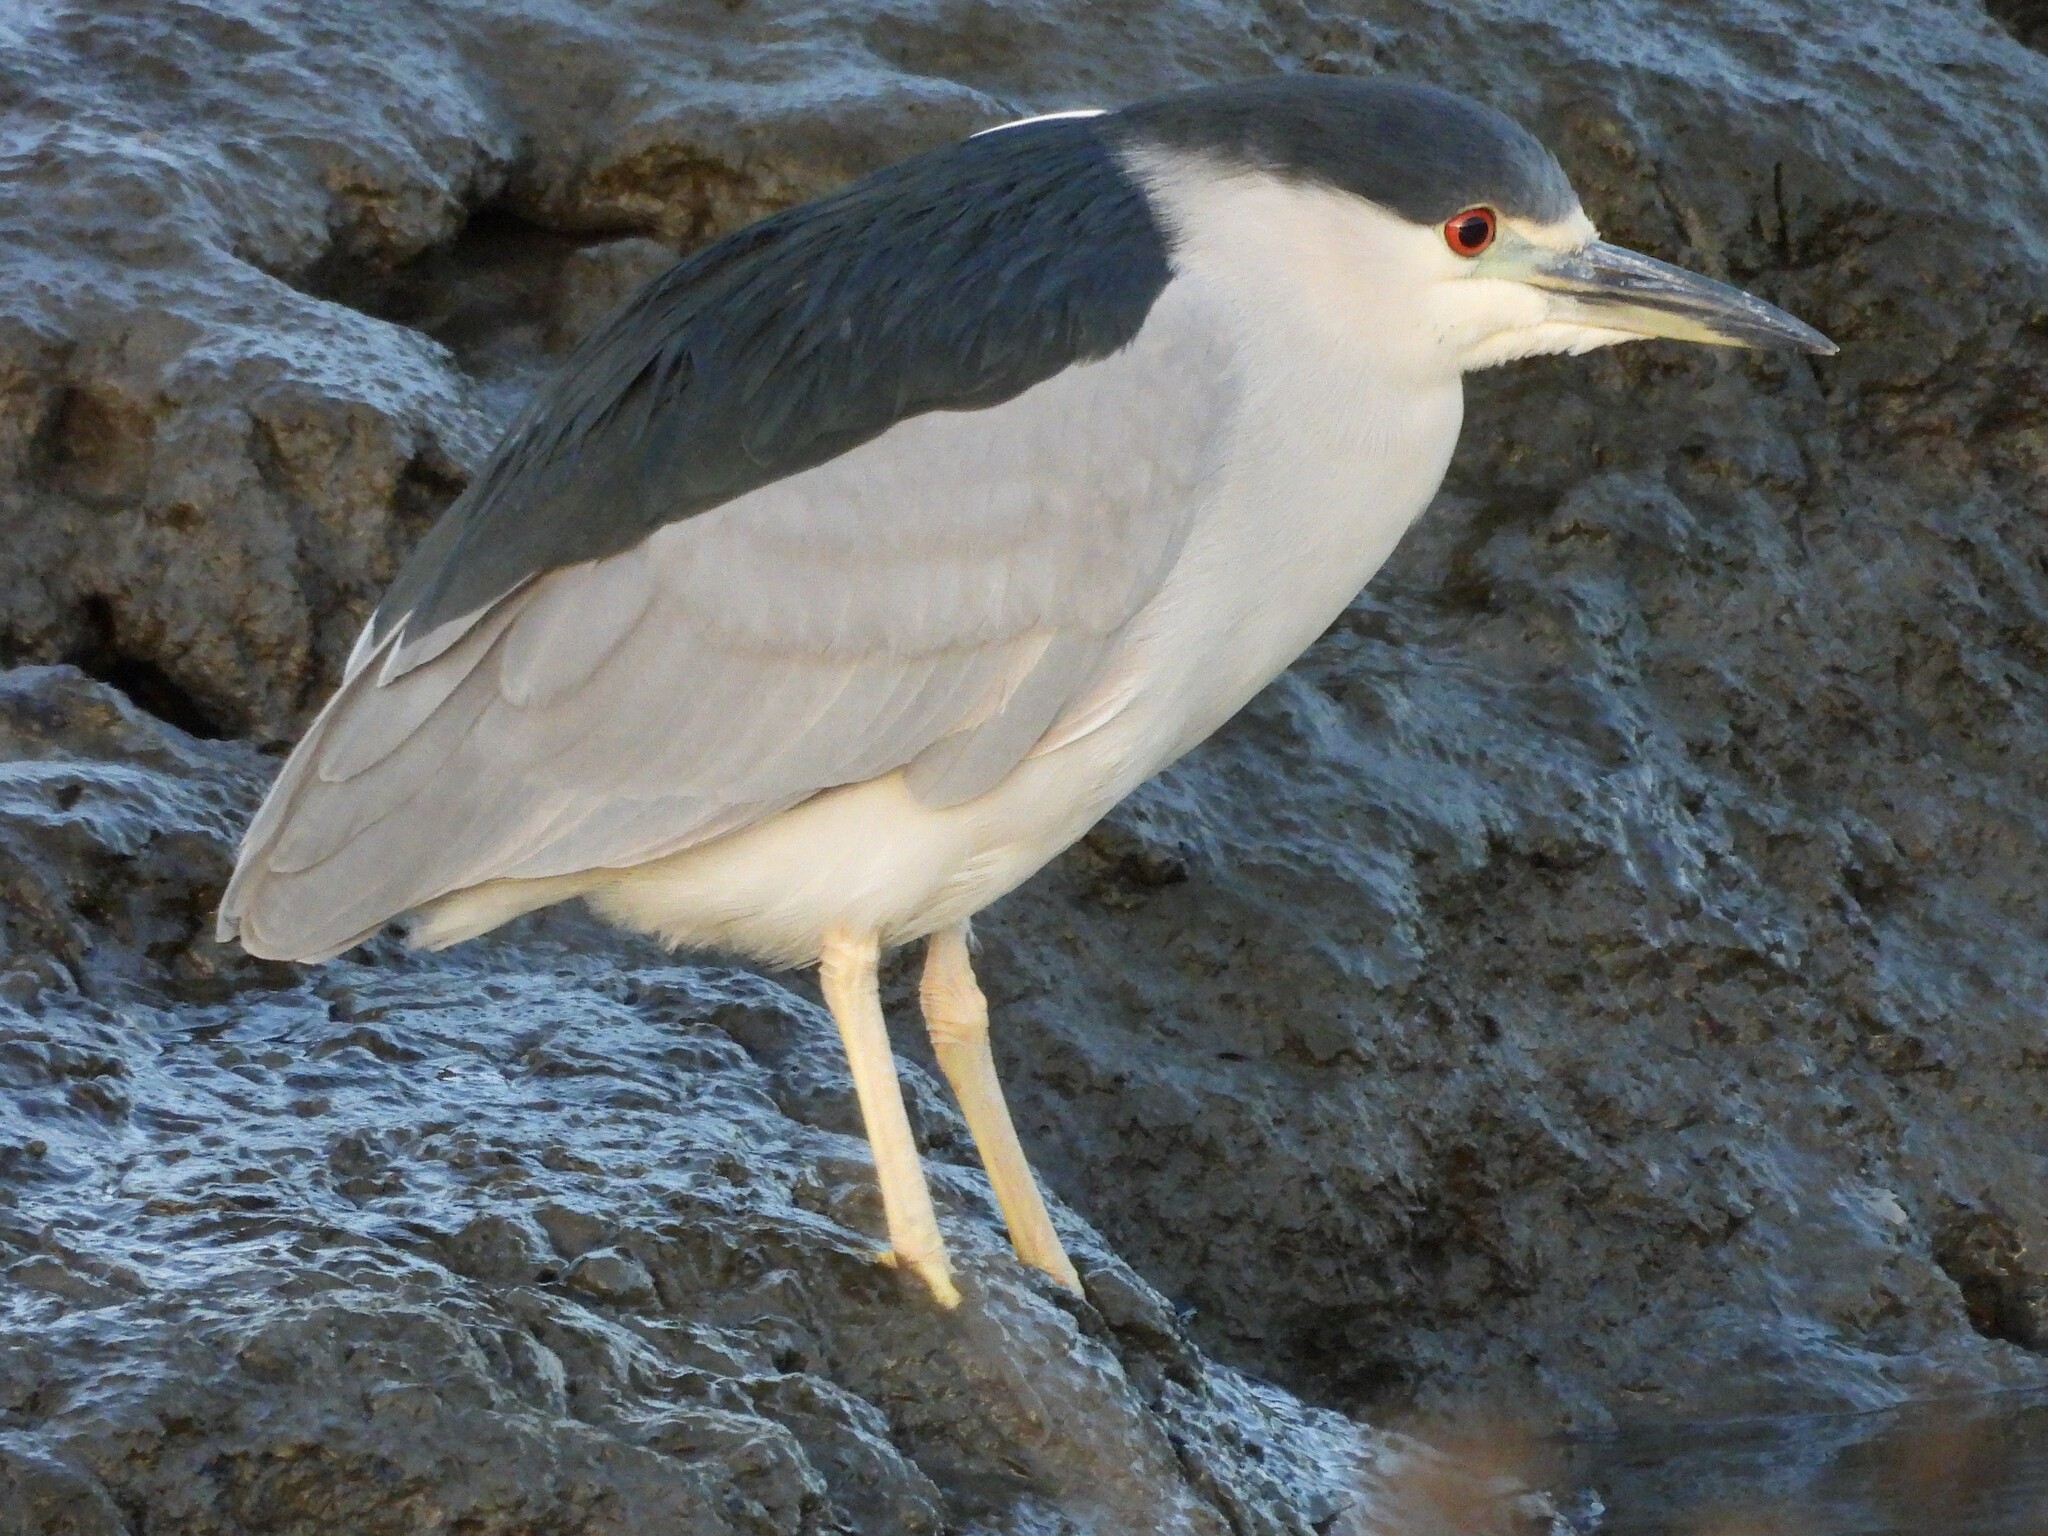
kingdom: Animalia
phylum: Chordata
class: Aves
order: Pelecaniformes
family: Ardeidae
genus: Nycticorax
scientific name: Nycticorax nycticorax
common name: Black-crowned night heron
